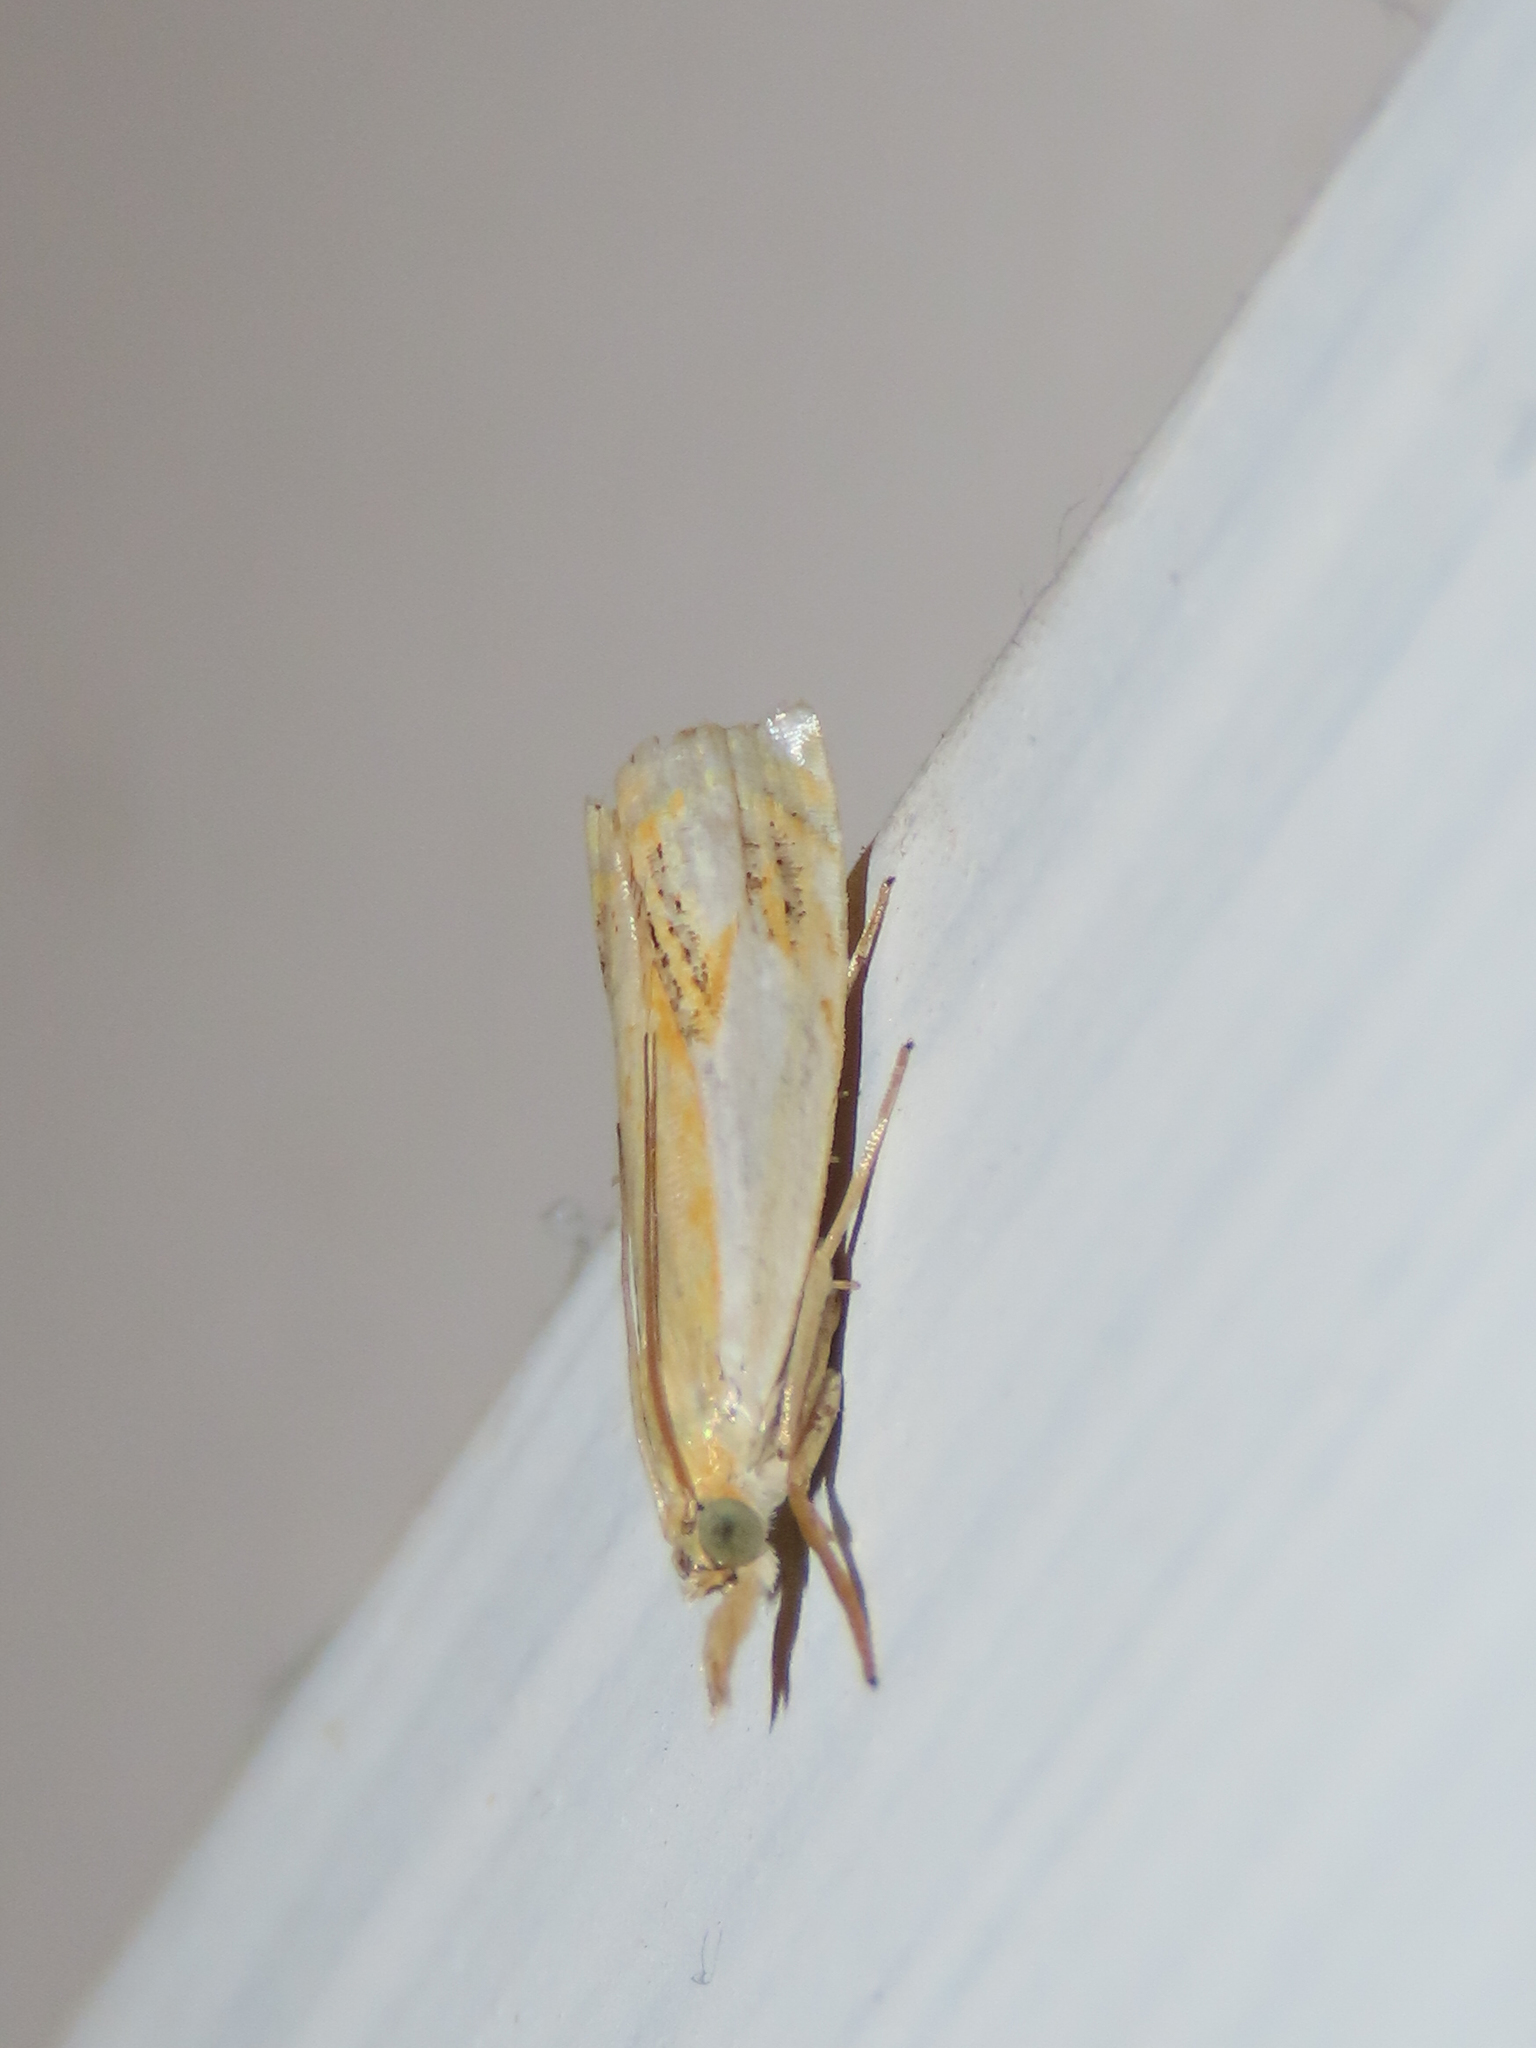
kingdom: Animalia
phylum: Arthropoda
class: Insecta
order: Lepidoptera
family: Crambidae
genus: Crambus
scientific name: Crambus agitatellus
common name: Double-banded grass-veneer
